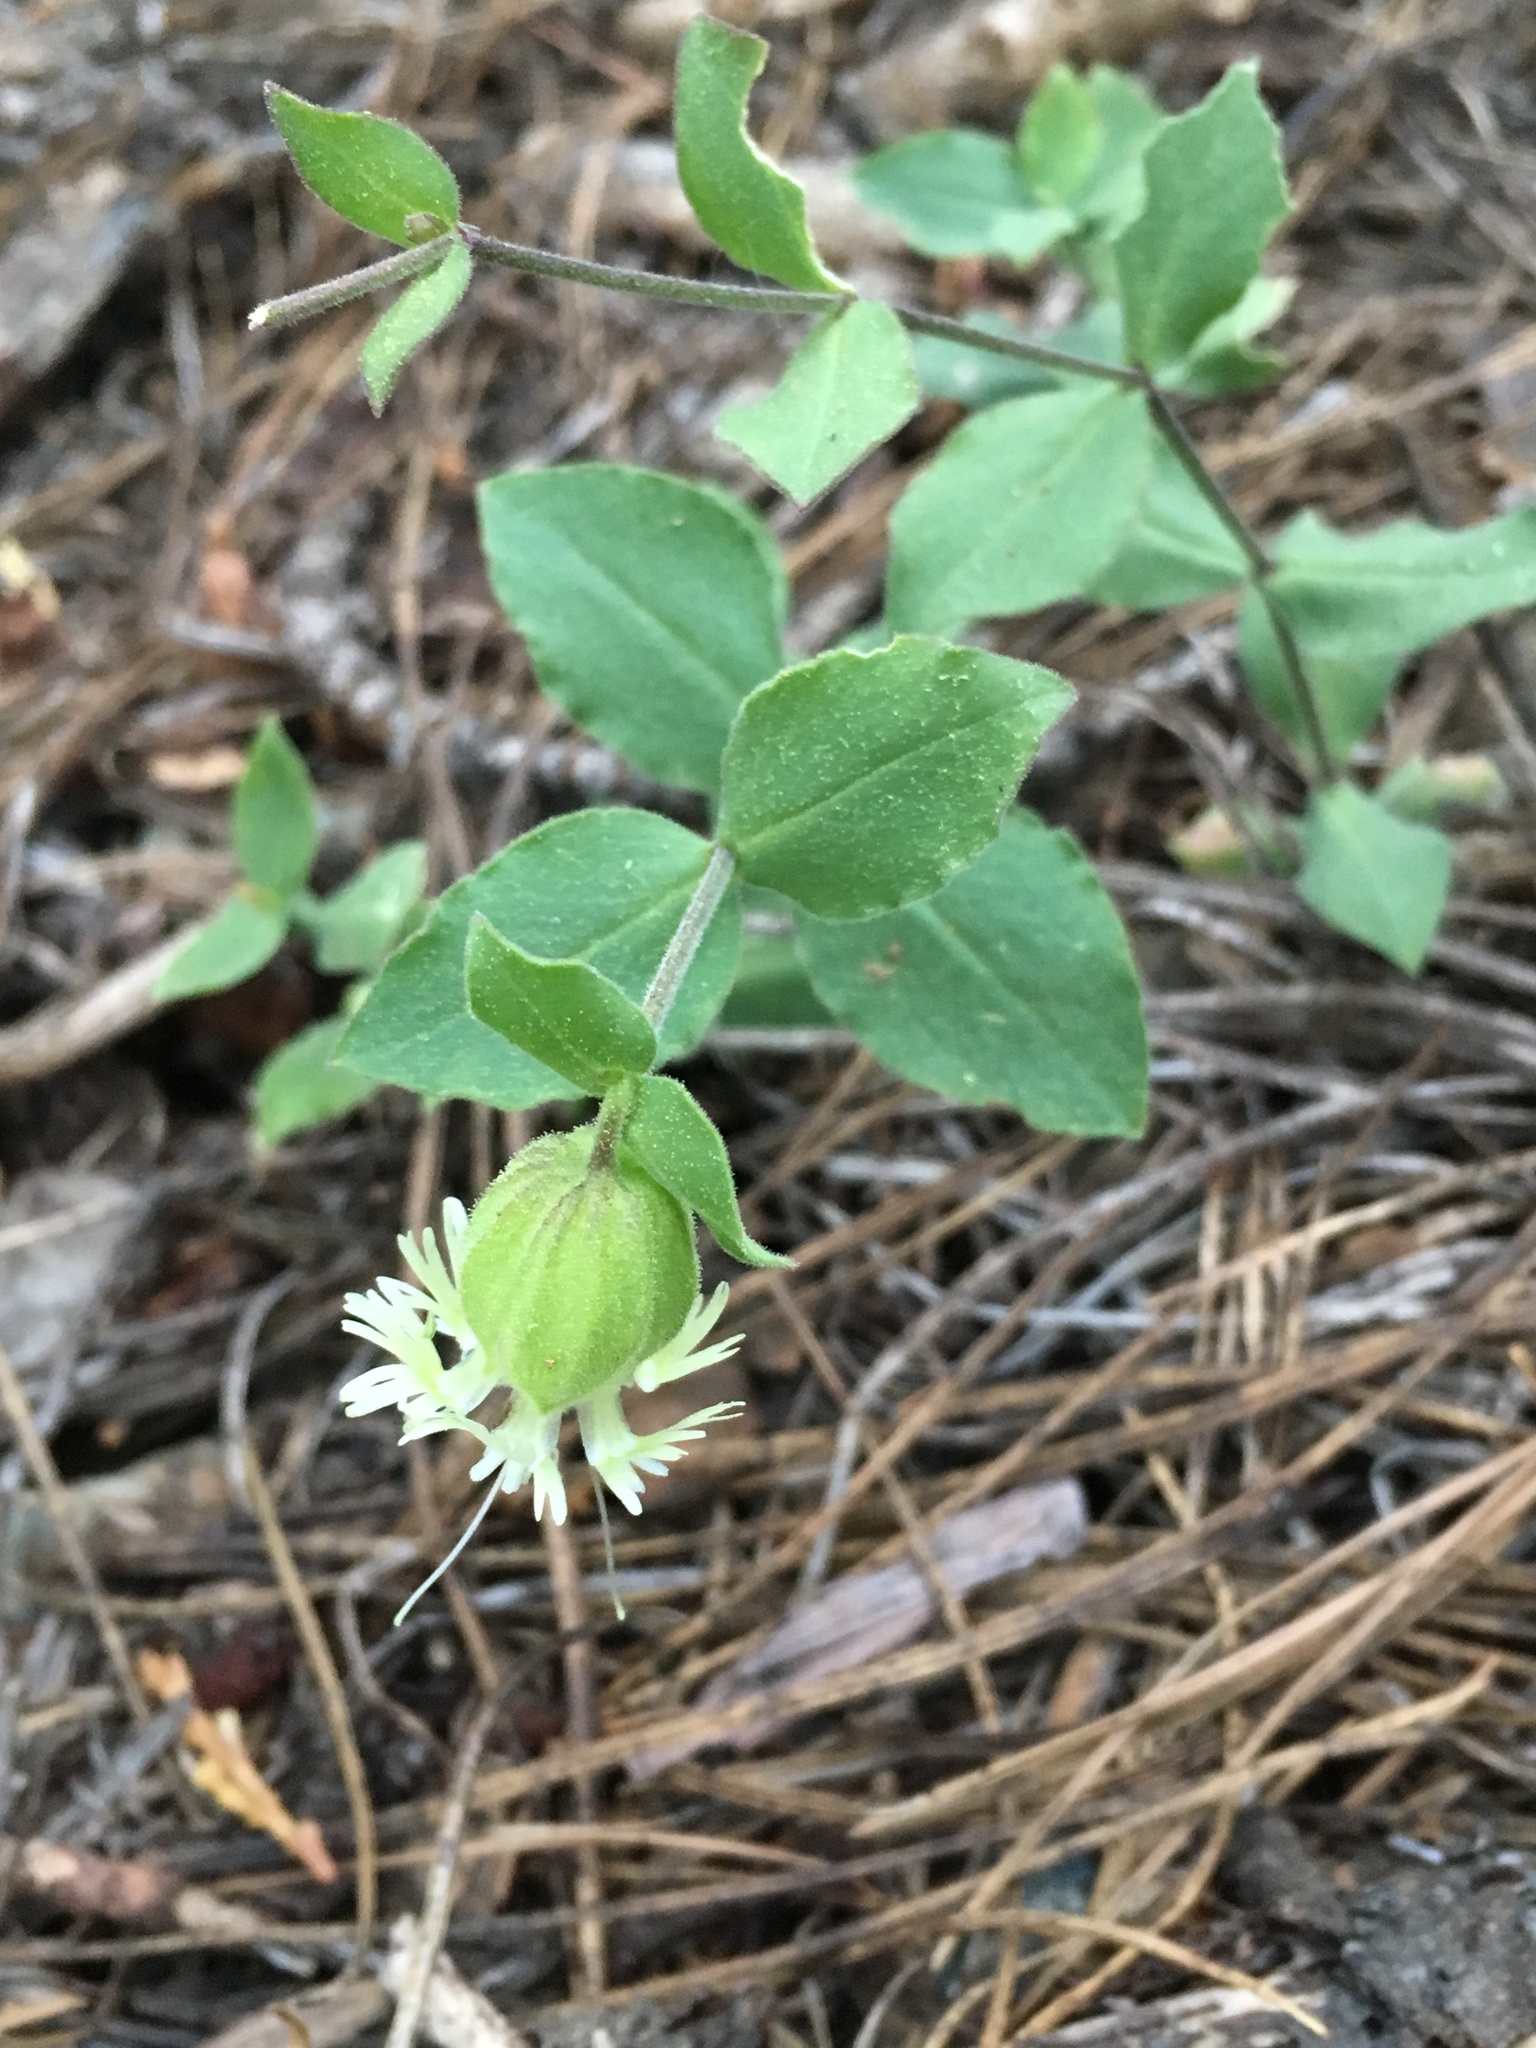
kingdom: Plantae
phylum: Tracheophyta
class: Magnoliopsida
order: Caryophyllales
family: Caryophyllaceae
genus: Silene
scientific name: Silene greenei
